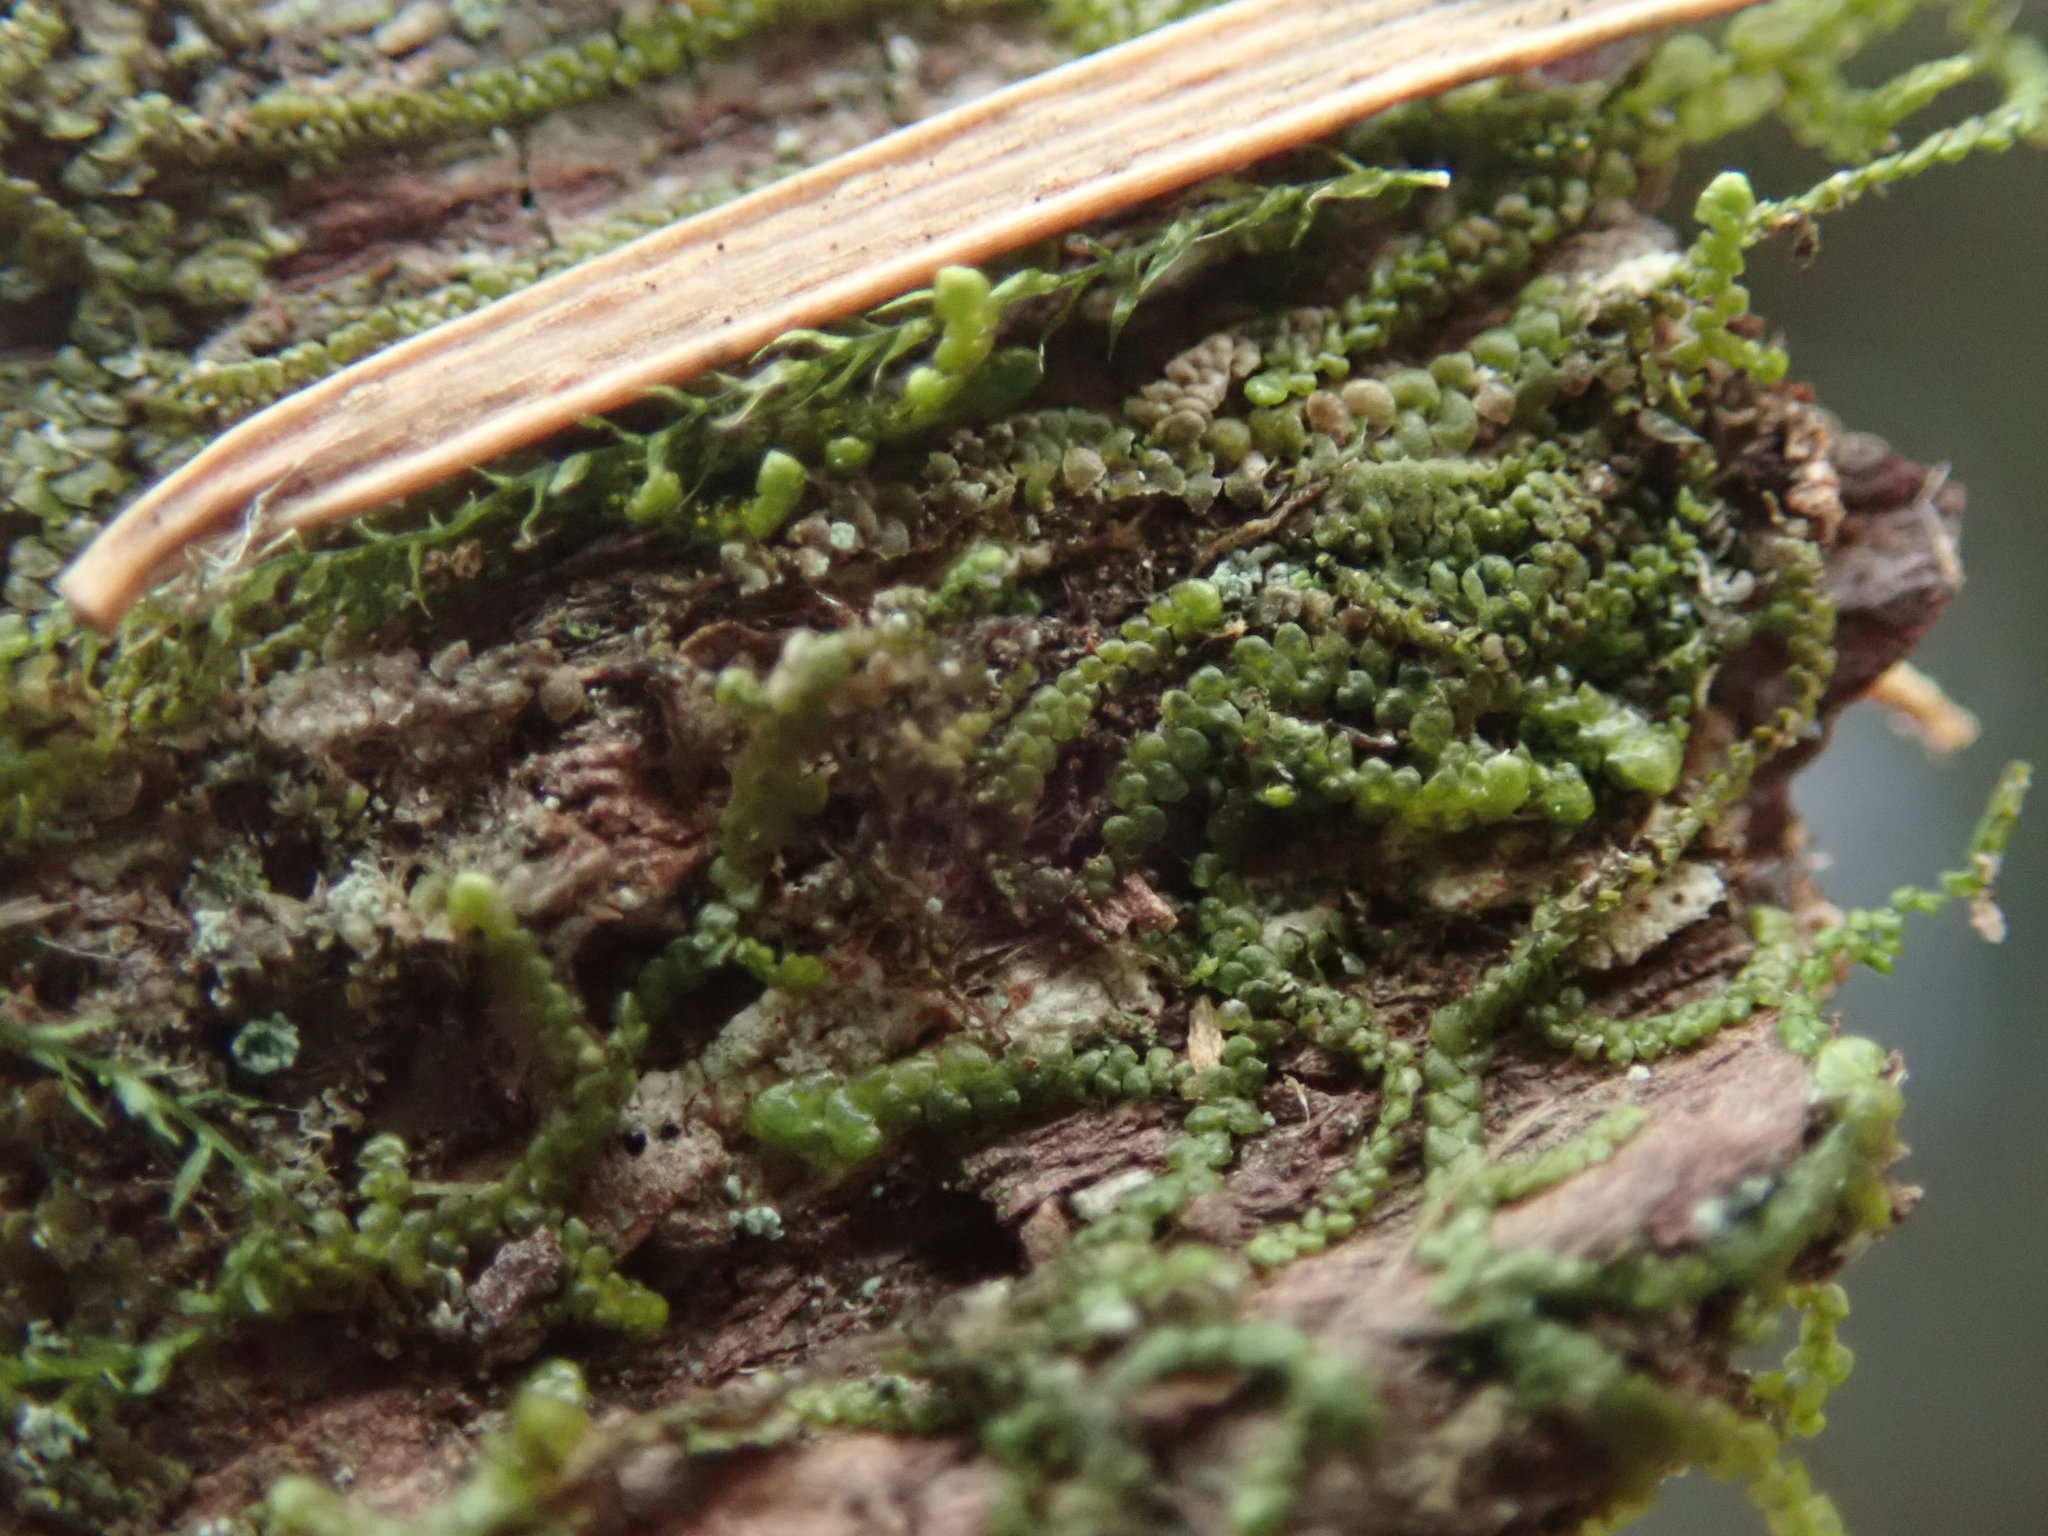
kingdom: Plantae
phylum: Marchantiophyta
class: Jungermanniopsida
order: Porellales
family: Radulaceae
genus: Radula
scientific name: Radula bolanderi
